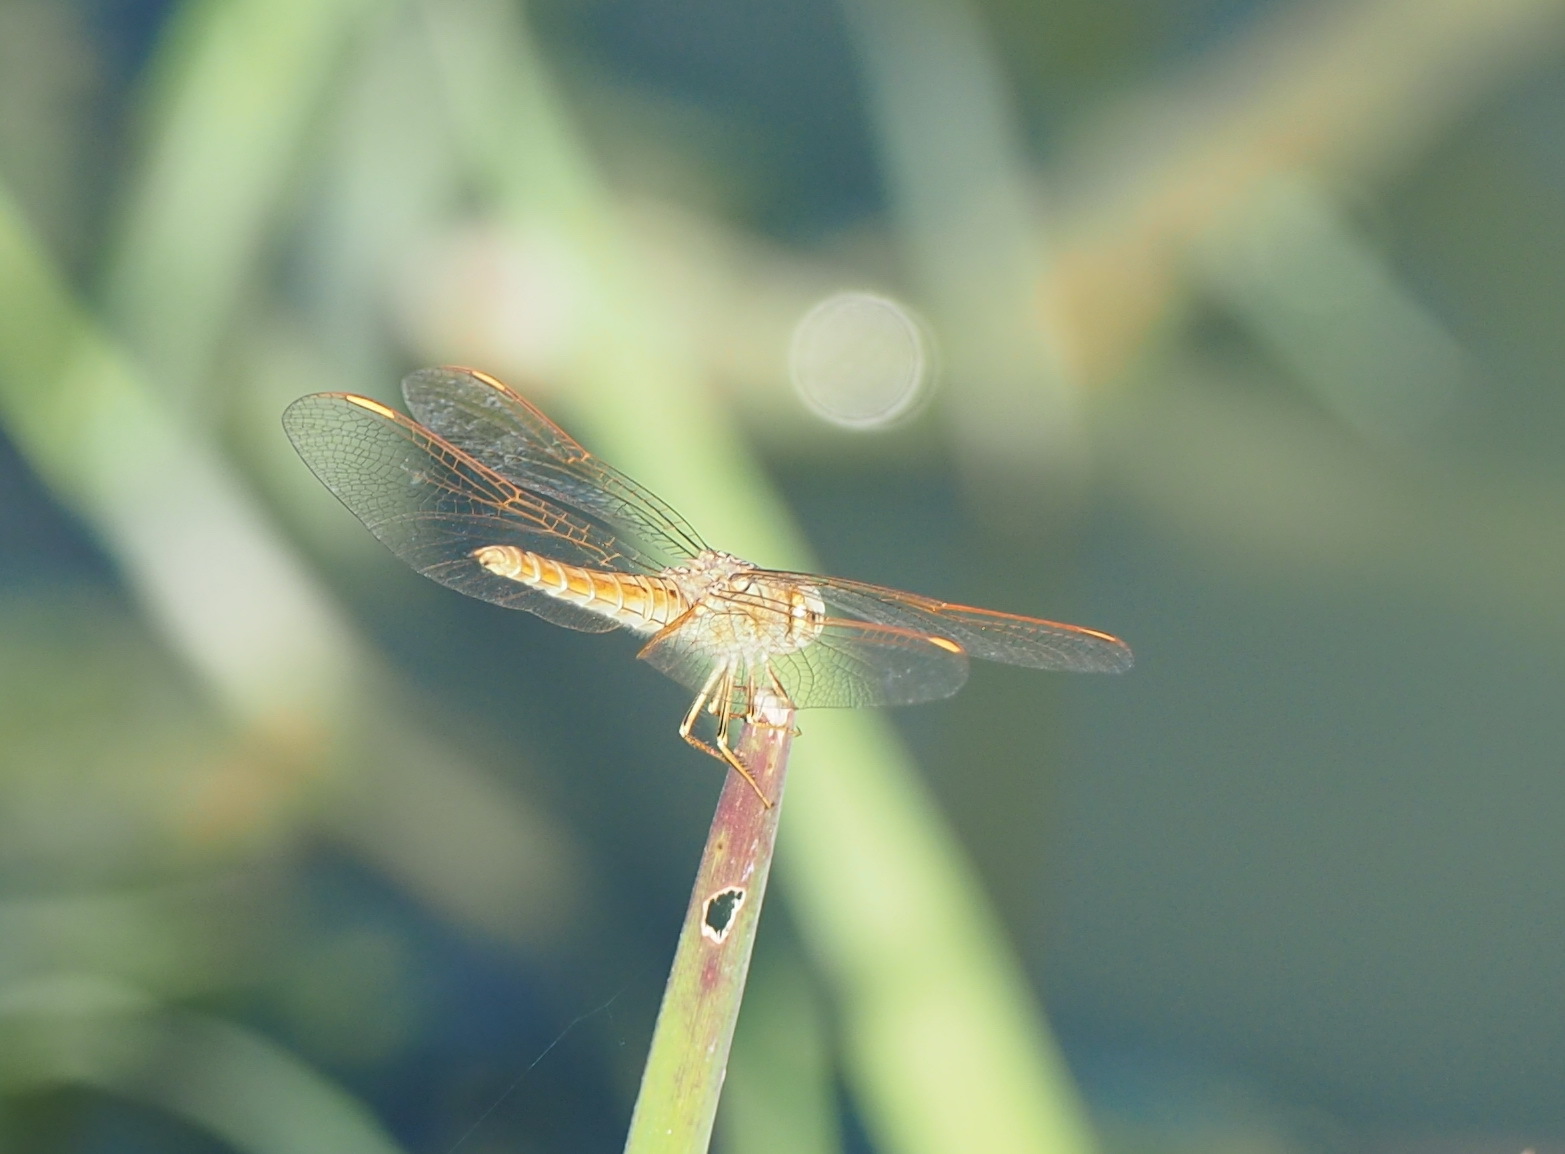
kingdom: Animalia
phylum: Arthropoda
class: Insecta
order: Odonata
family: Libellulidae
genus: Brachythemis
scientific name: Brachythemis contaminata
